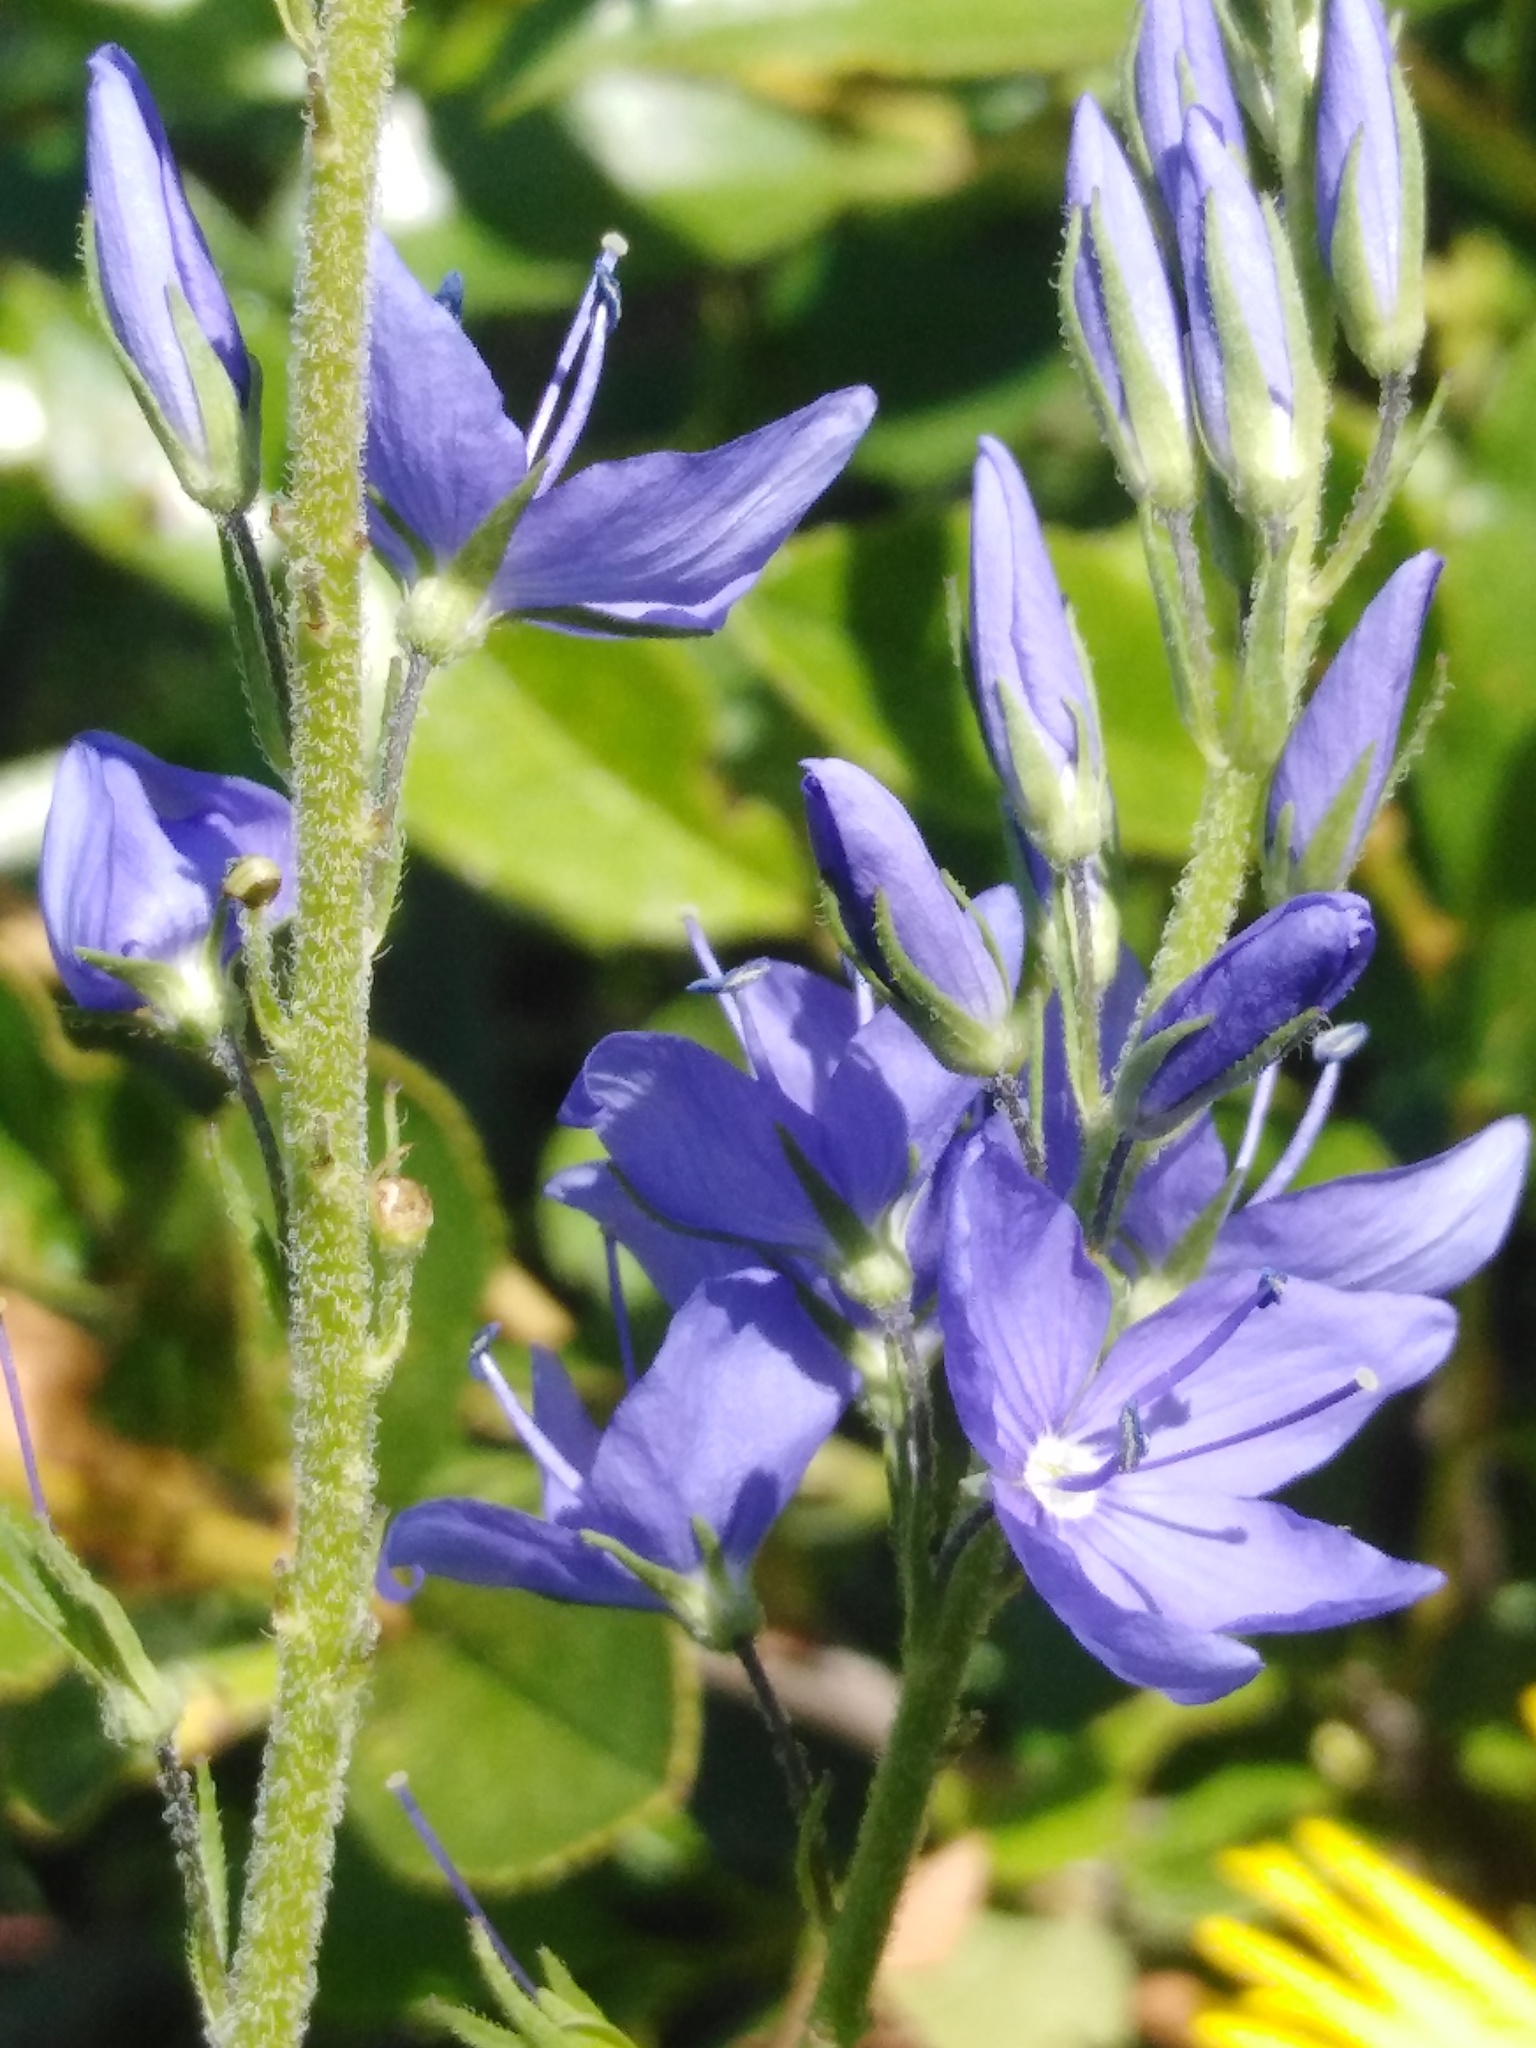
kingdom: Plantae
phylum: Tracheophyta
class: Magnoliopsida
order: Lamiales
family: Plantaginaceae
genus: Veronica
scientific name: Veronica teucrium
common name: Large speedwell
